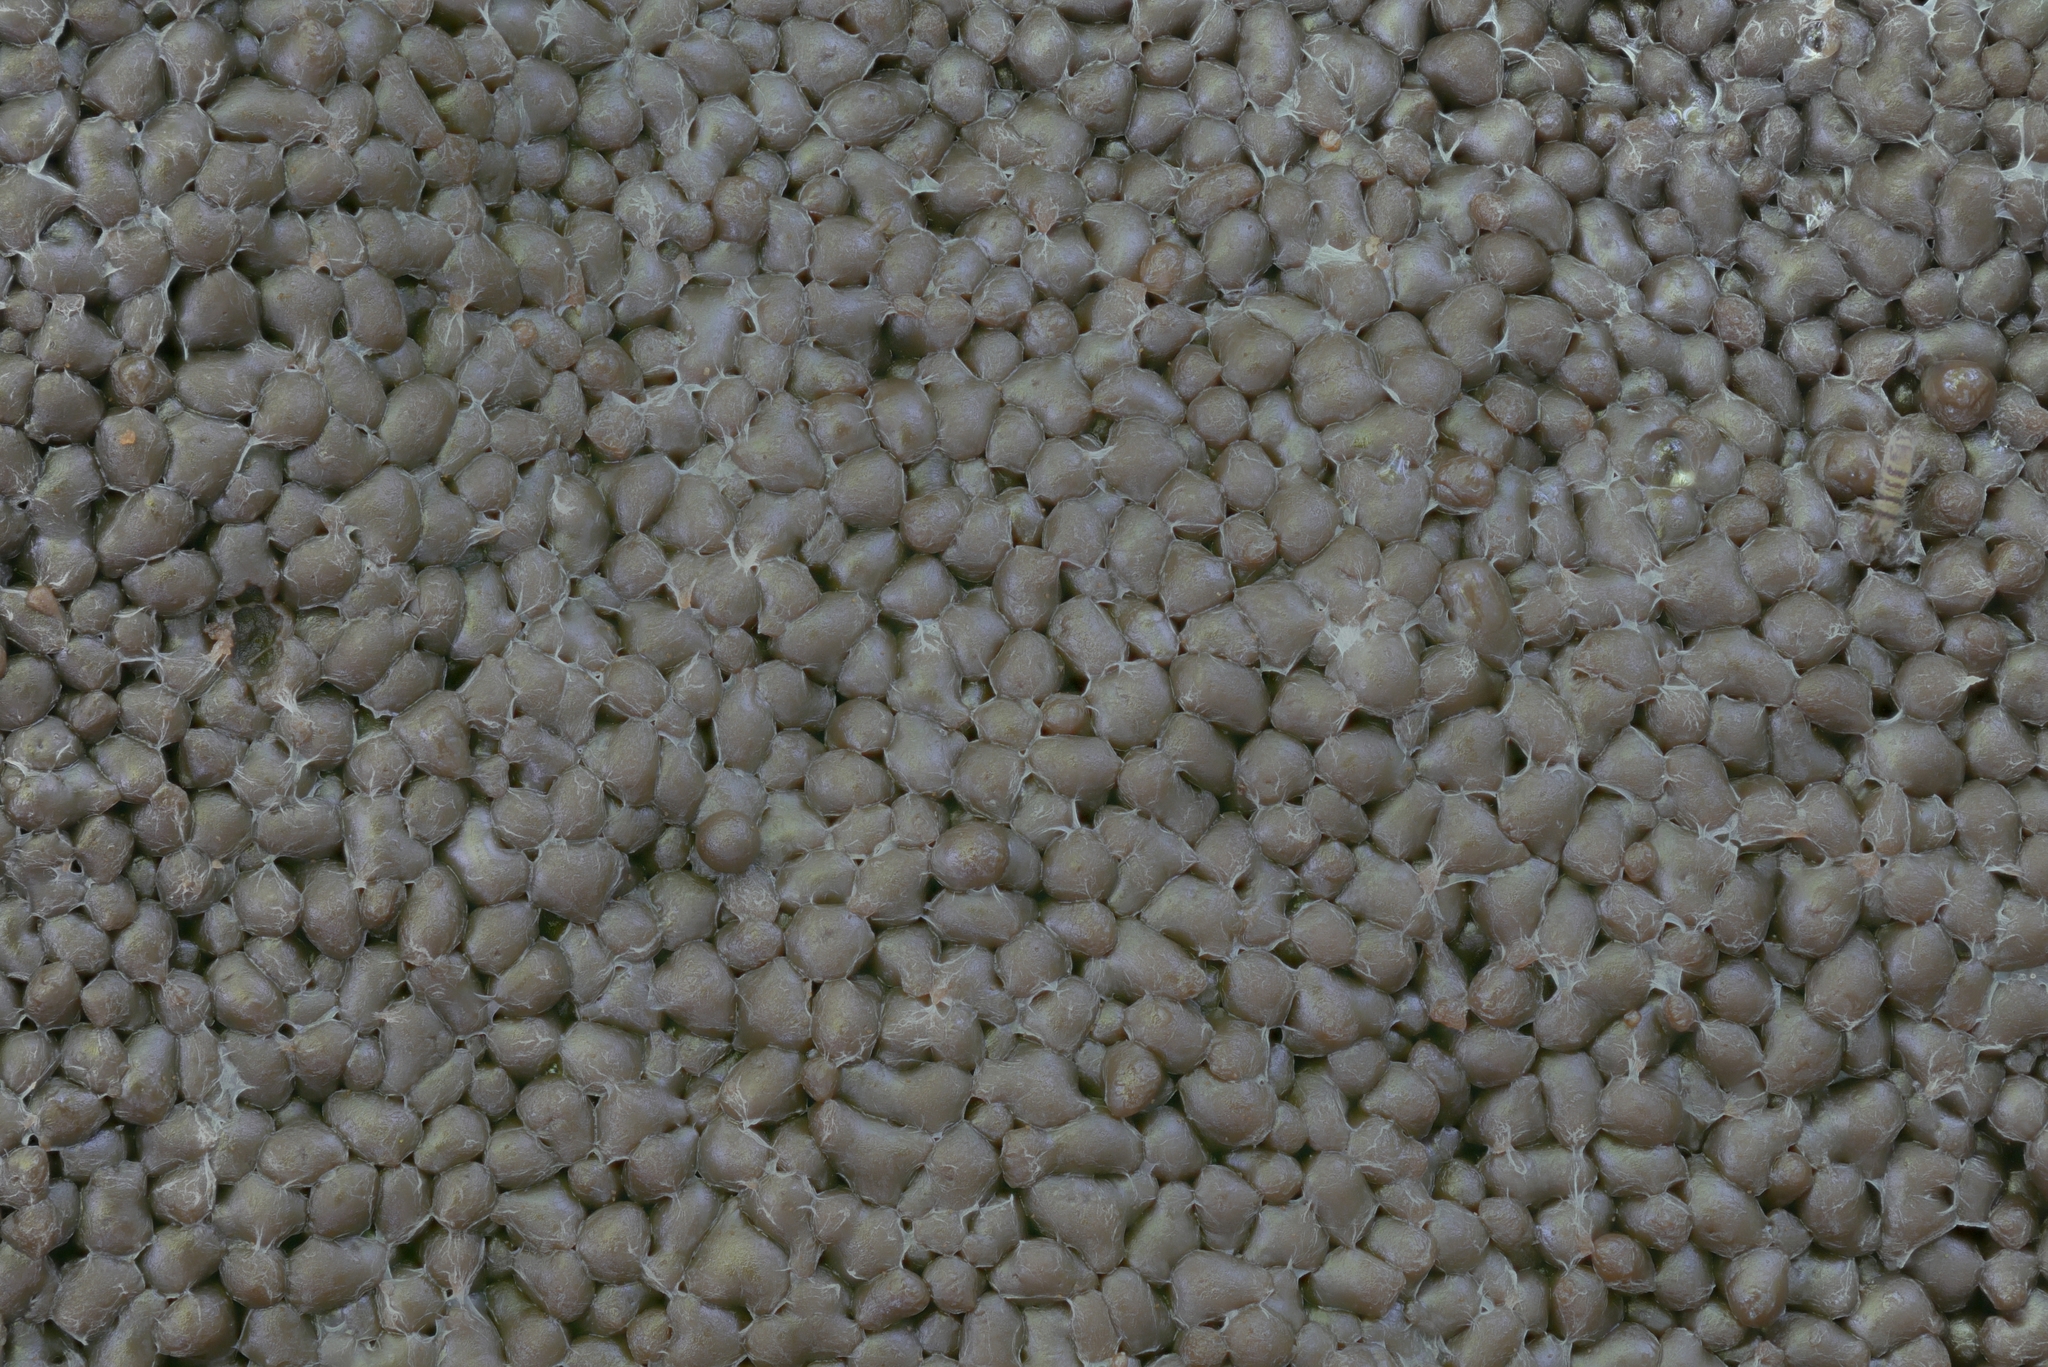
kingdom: Protozoa
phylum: Mycetozoa
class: Myxomycetes
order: Cribrariales
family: Tubiferaceae
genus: Tubifera
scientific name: Tubifera magna
